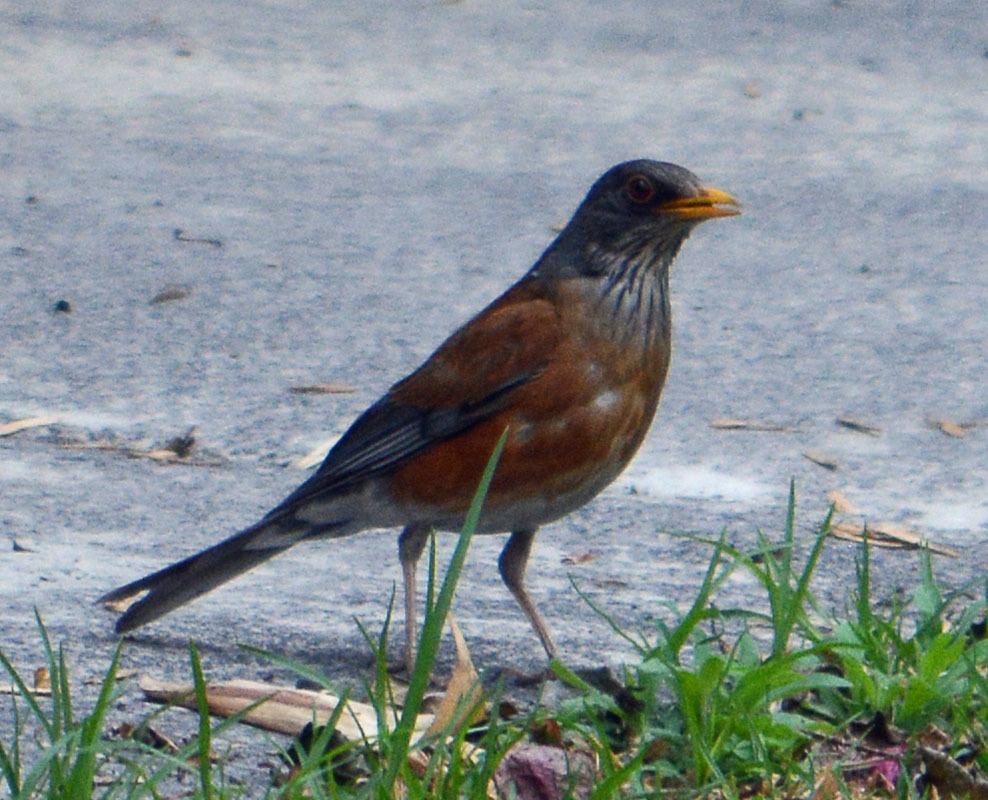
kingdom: Animalia
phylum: Chordata
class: Aves
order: Passeriformes
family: Turdidae
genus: Turdus
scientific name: Turdus rufopalliatus
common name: Rufous-backed robin
